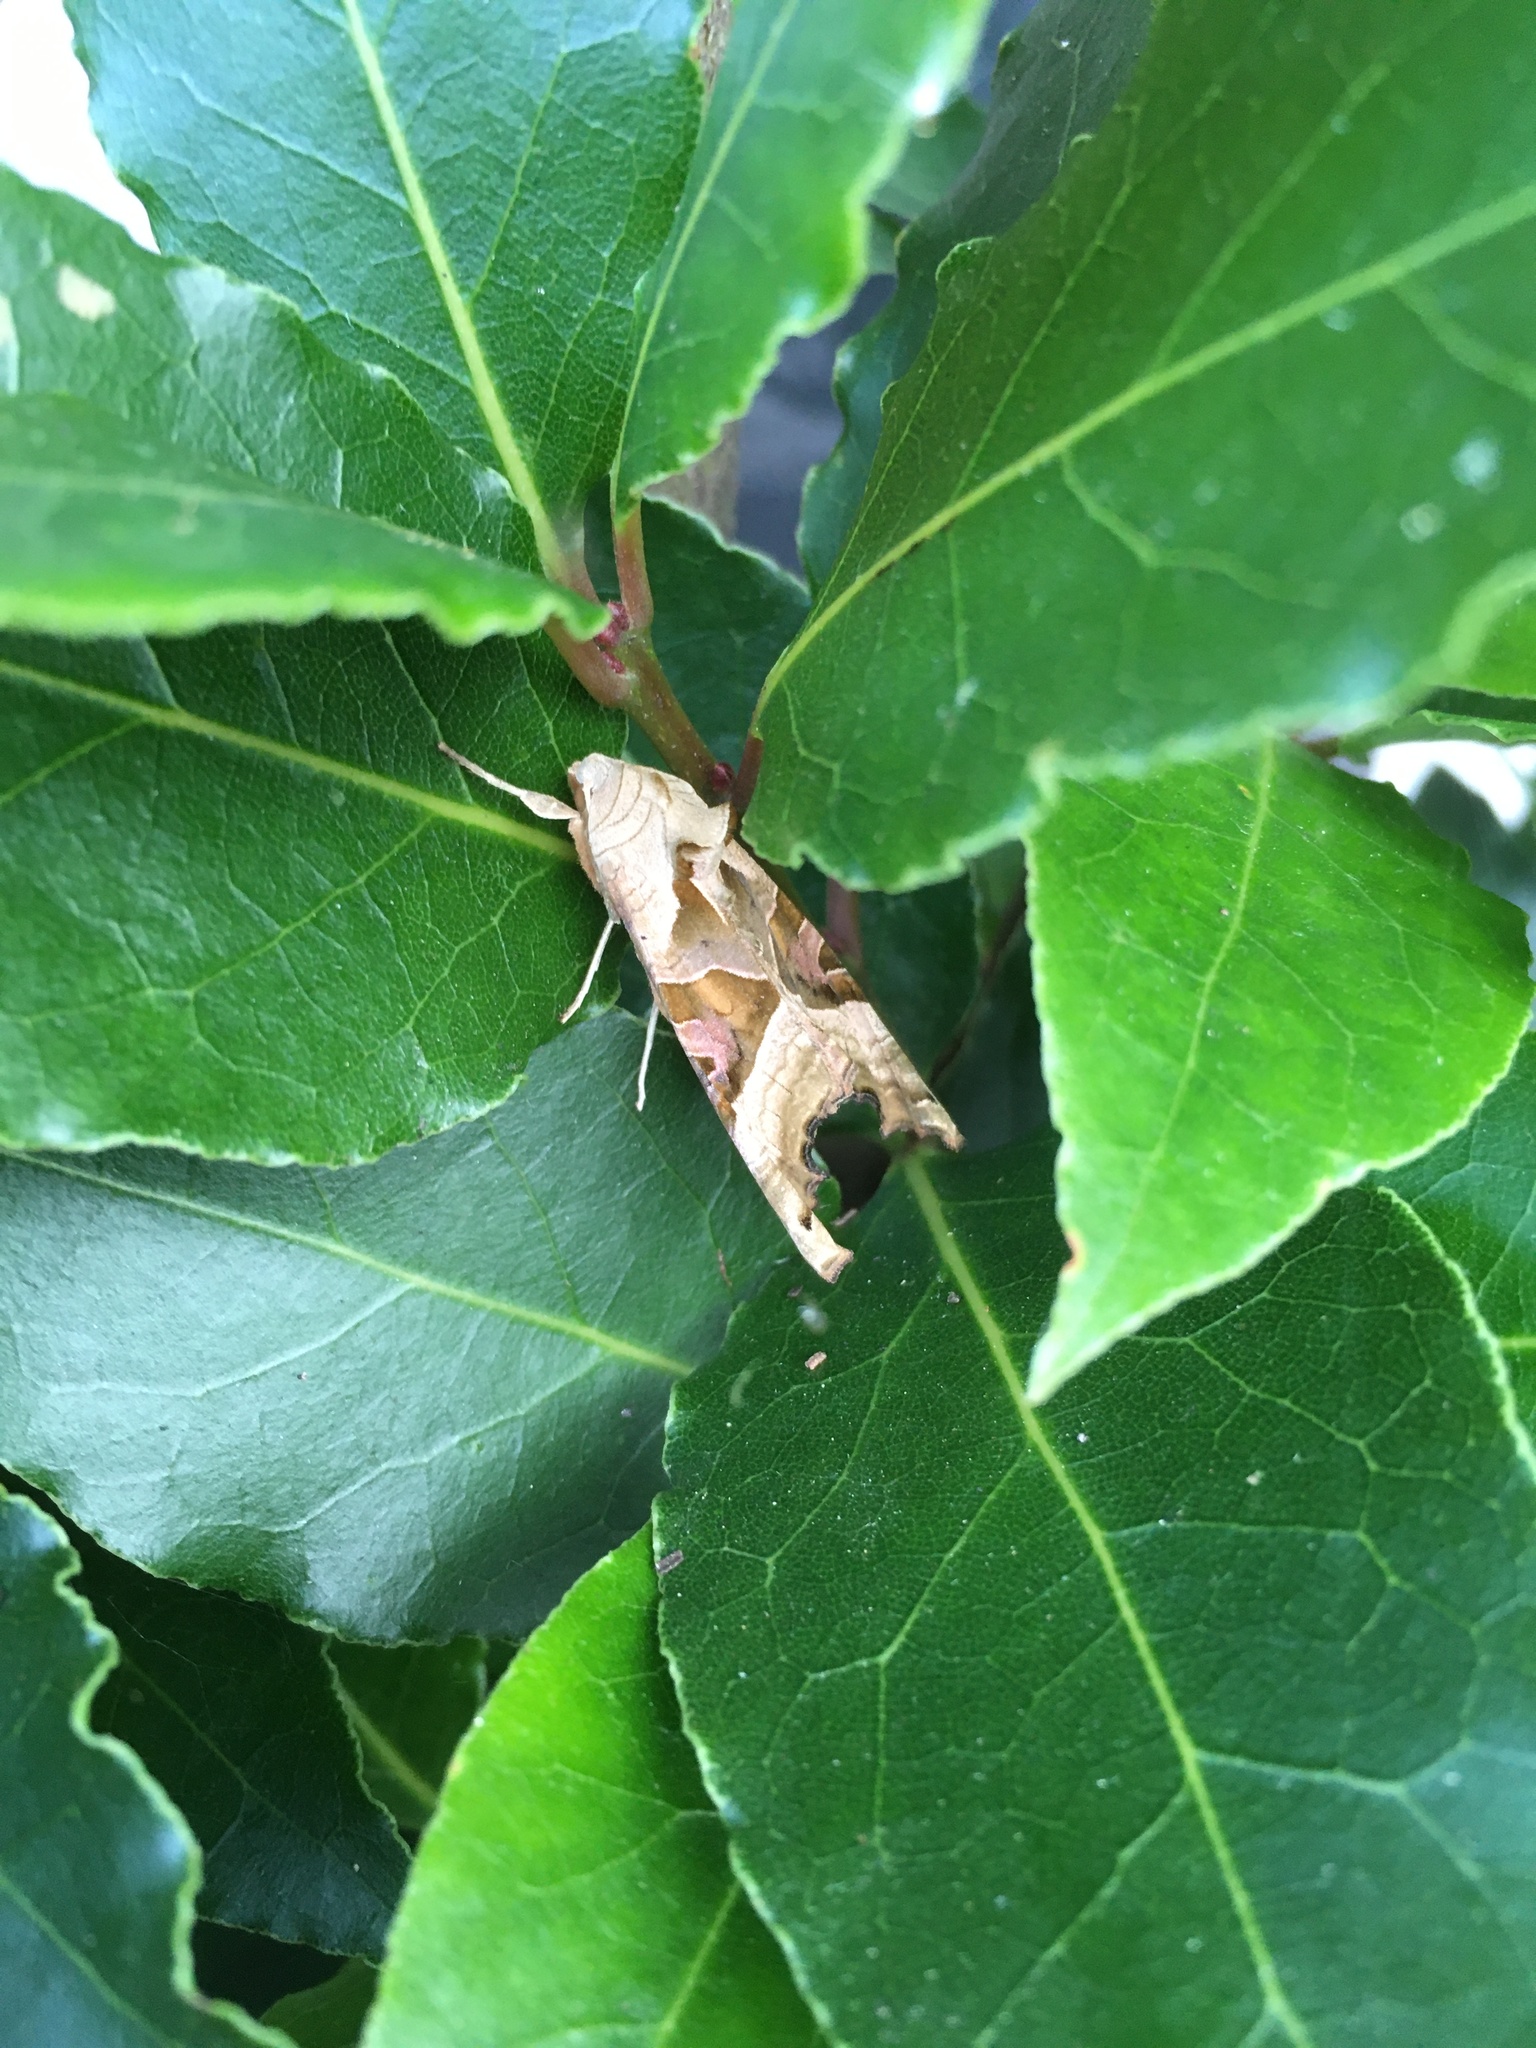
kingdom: Animalia
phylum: Arthropoda
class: Insecta
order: Lepidoptera
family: Noctuidae
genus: Phlogophora
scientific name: Phlogophora meticulosa
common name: Angle shades
